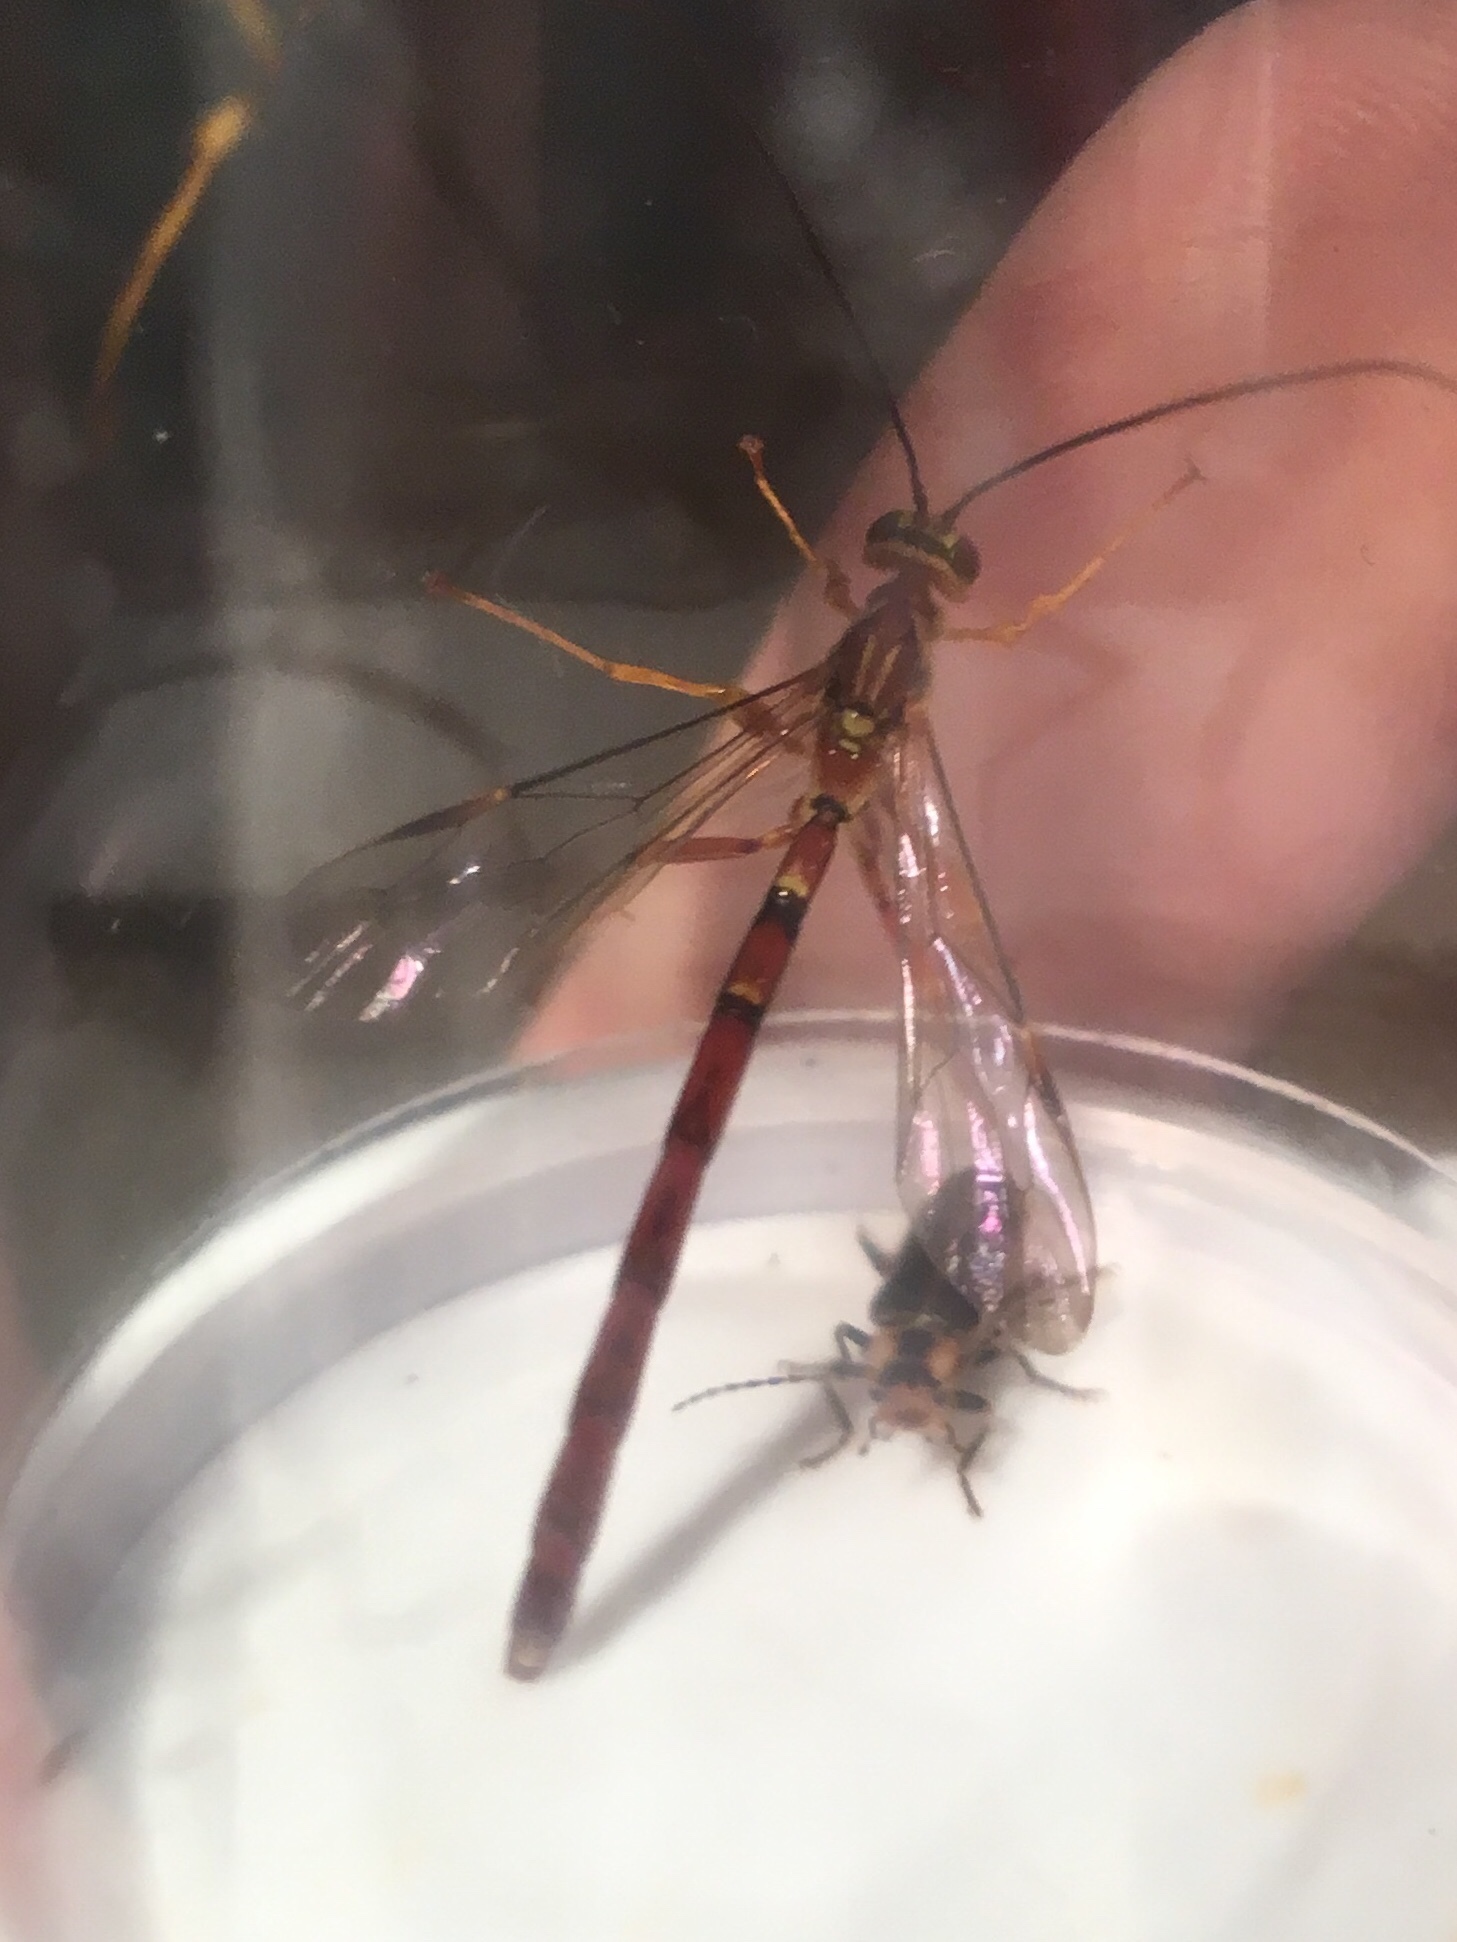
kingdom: Animalia
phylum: Arthropoda
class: Insecta
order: Hymenoptera
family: Ichneumonidae
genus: Megarhyssa
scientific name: Megarhyssa greenei
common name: Greene's giant ichneumonid wasp
